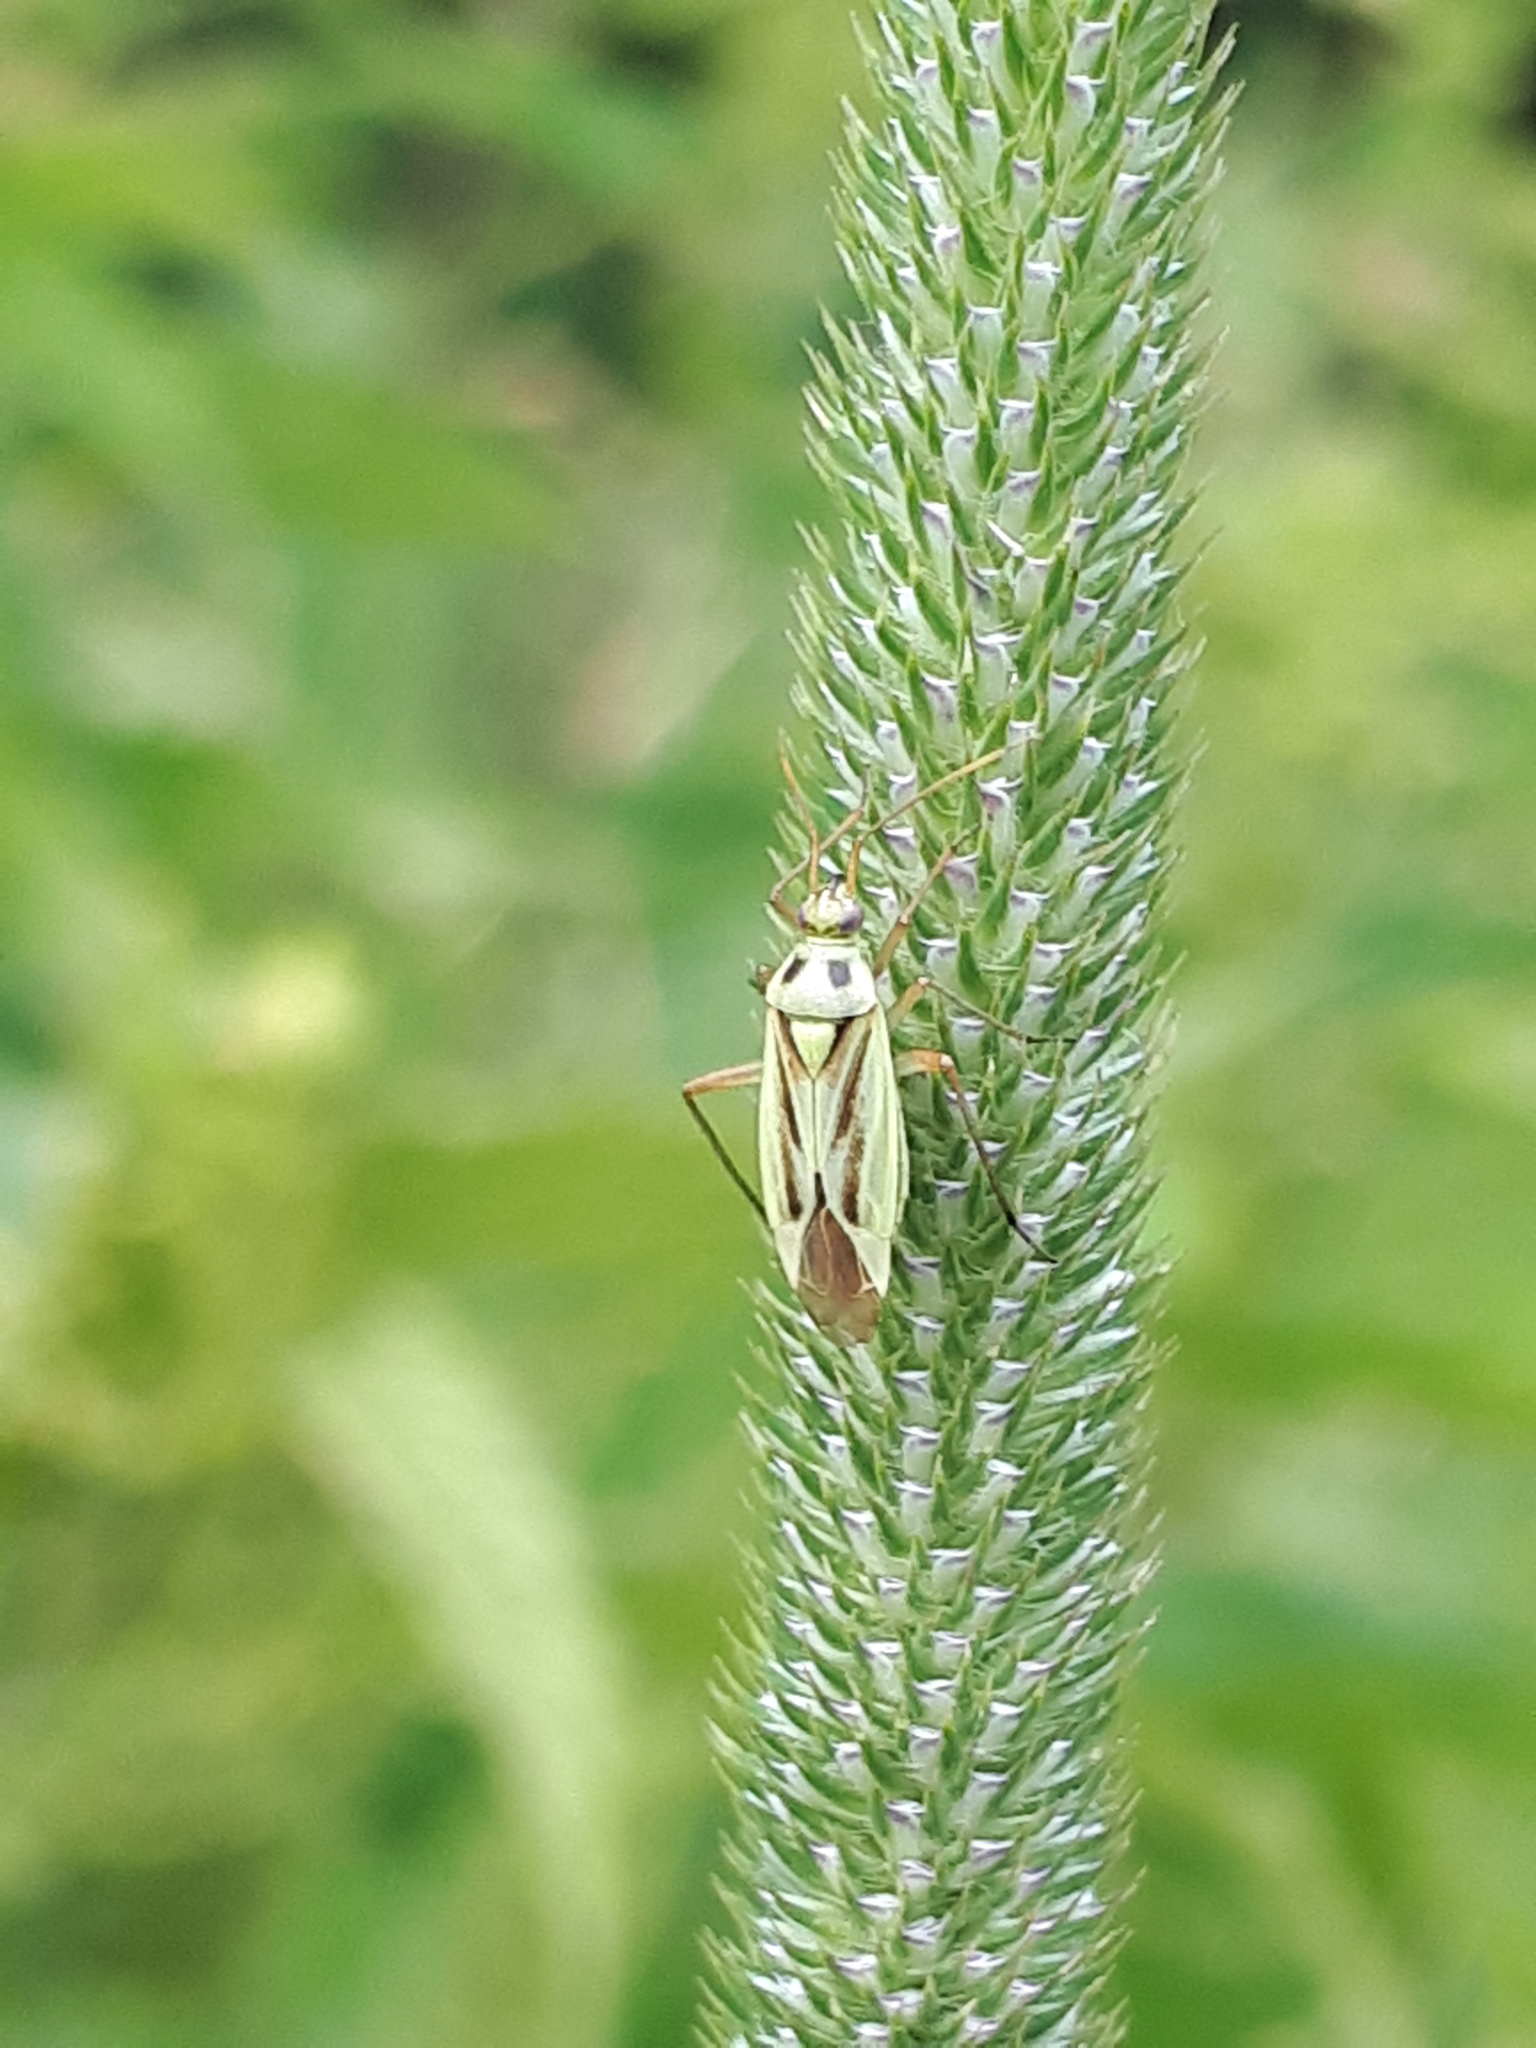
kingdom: Animalia
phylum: Arthropoda
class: Insecta
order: Hemiptera
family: Miridae
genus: Stenotus
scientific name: Stenotus binotatus
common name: Plant bug
